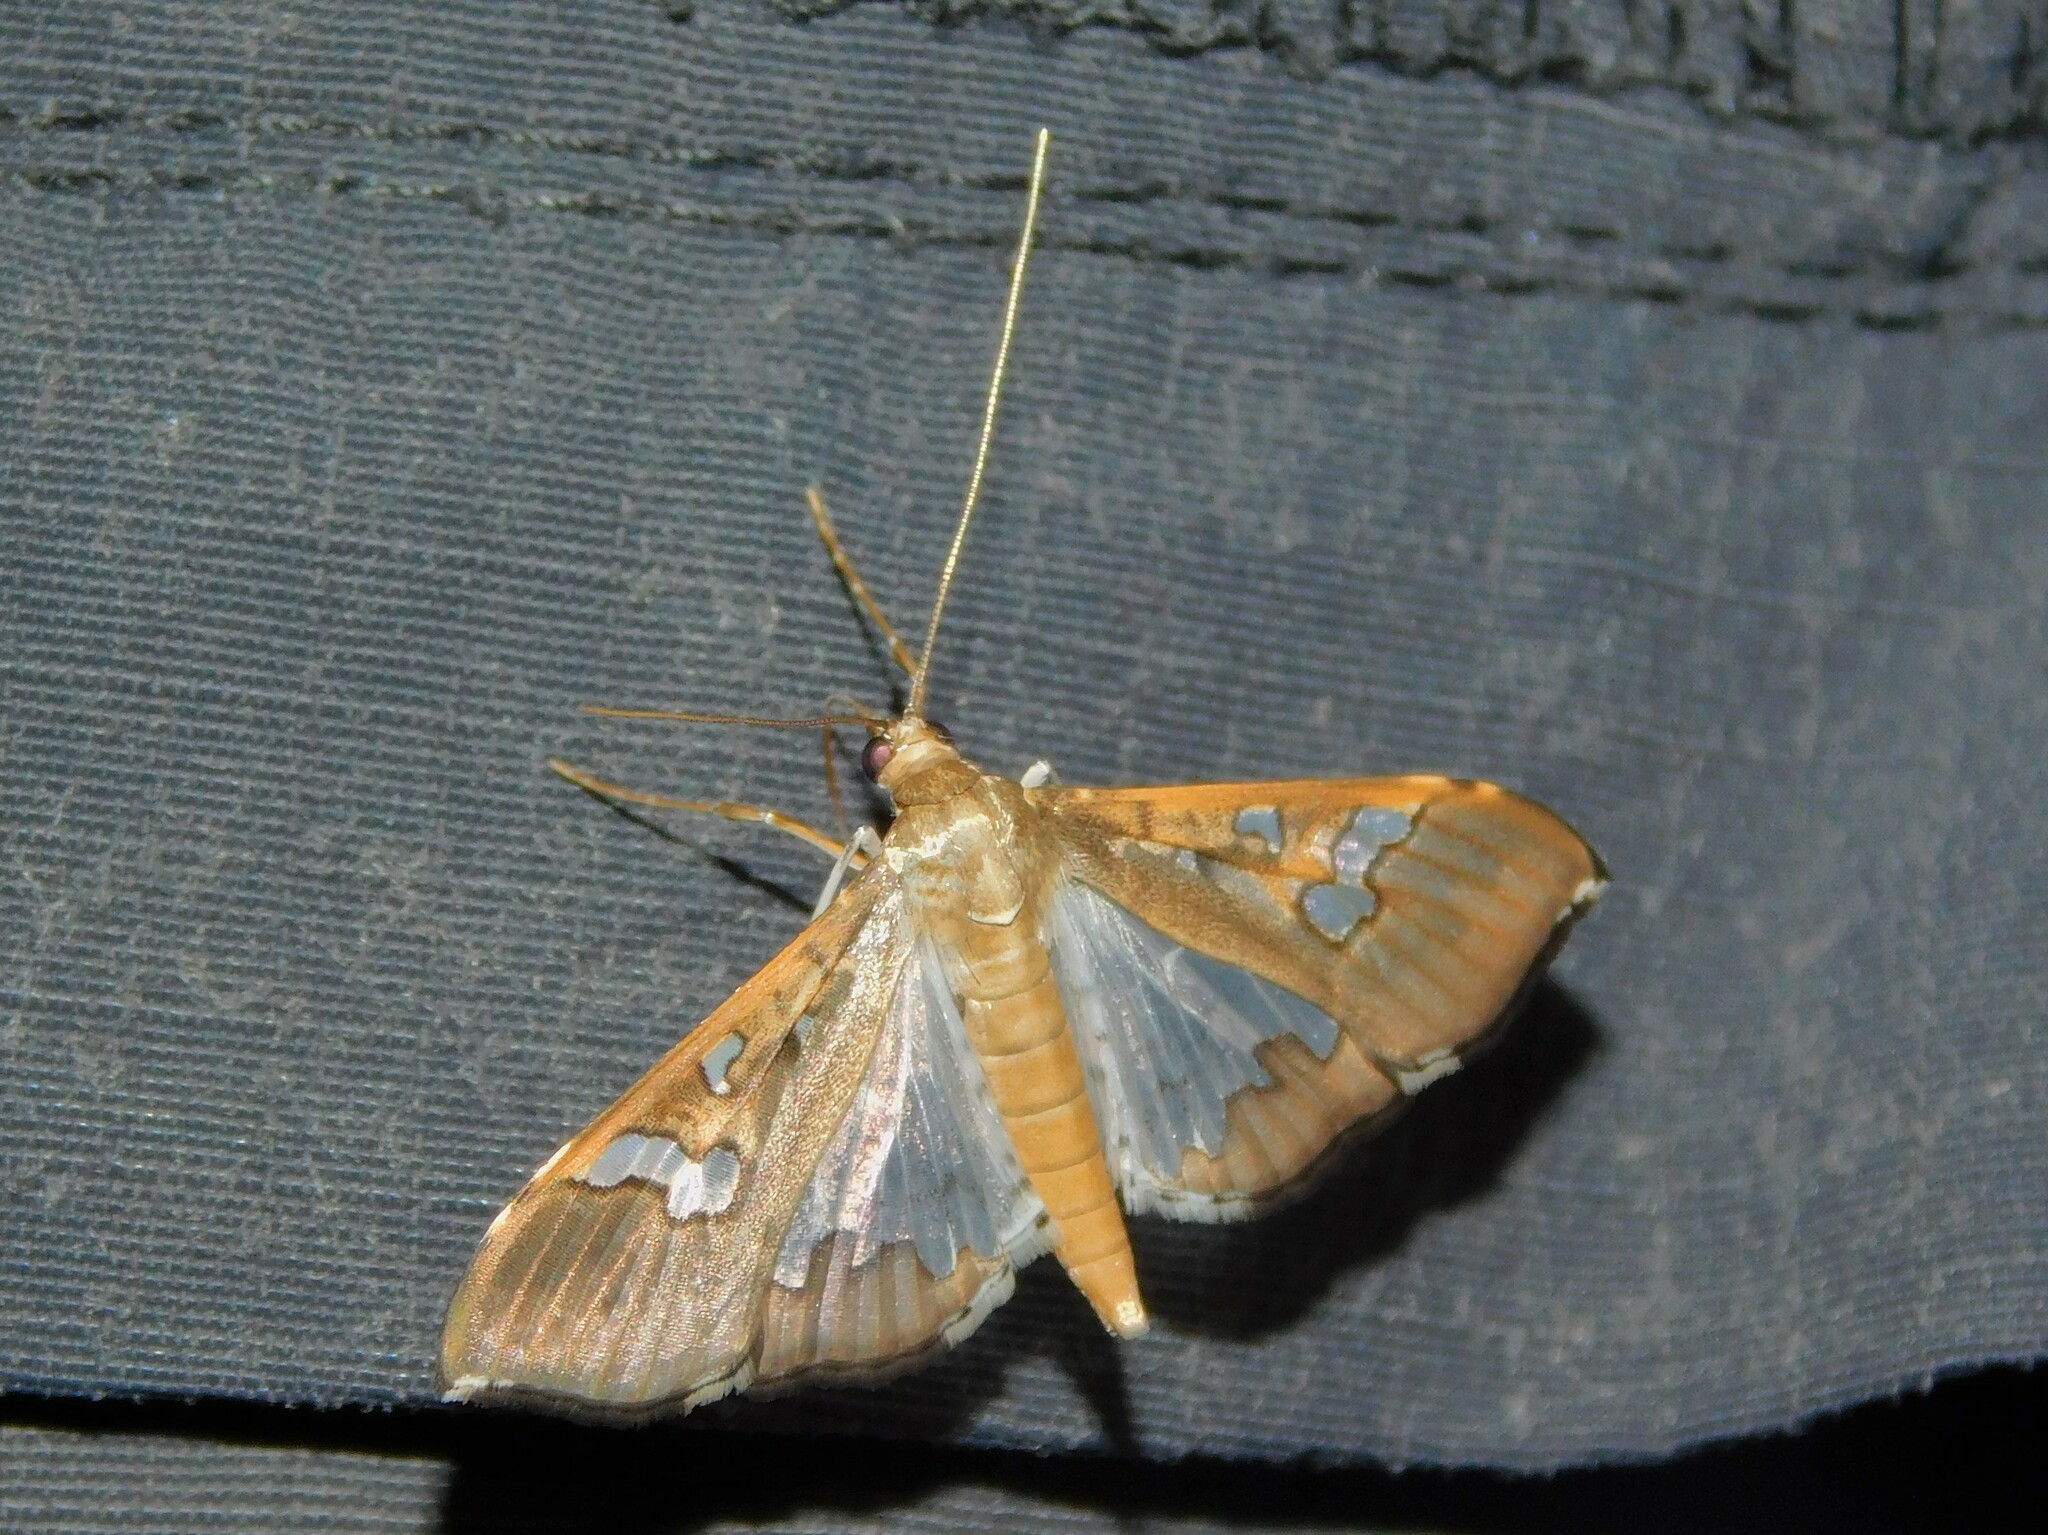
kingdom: Animalia
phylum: Arthropoda
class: Insecta
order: Lepidoptera
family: Crambidae
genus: Maruca
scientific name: Maruca vitrata
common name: Maruca pod borer
